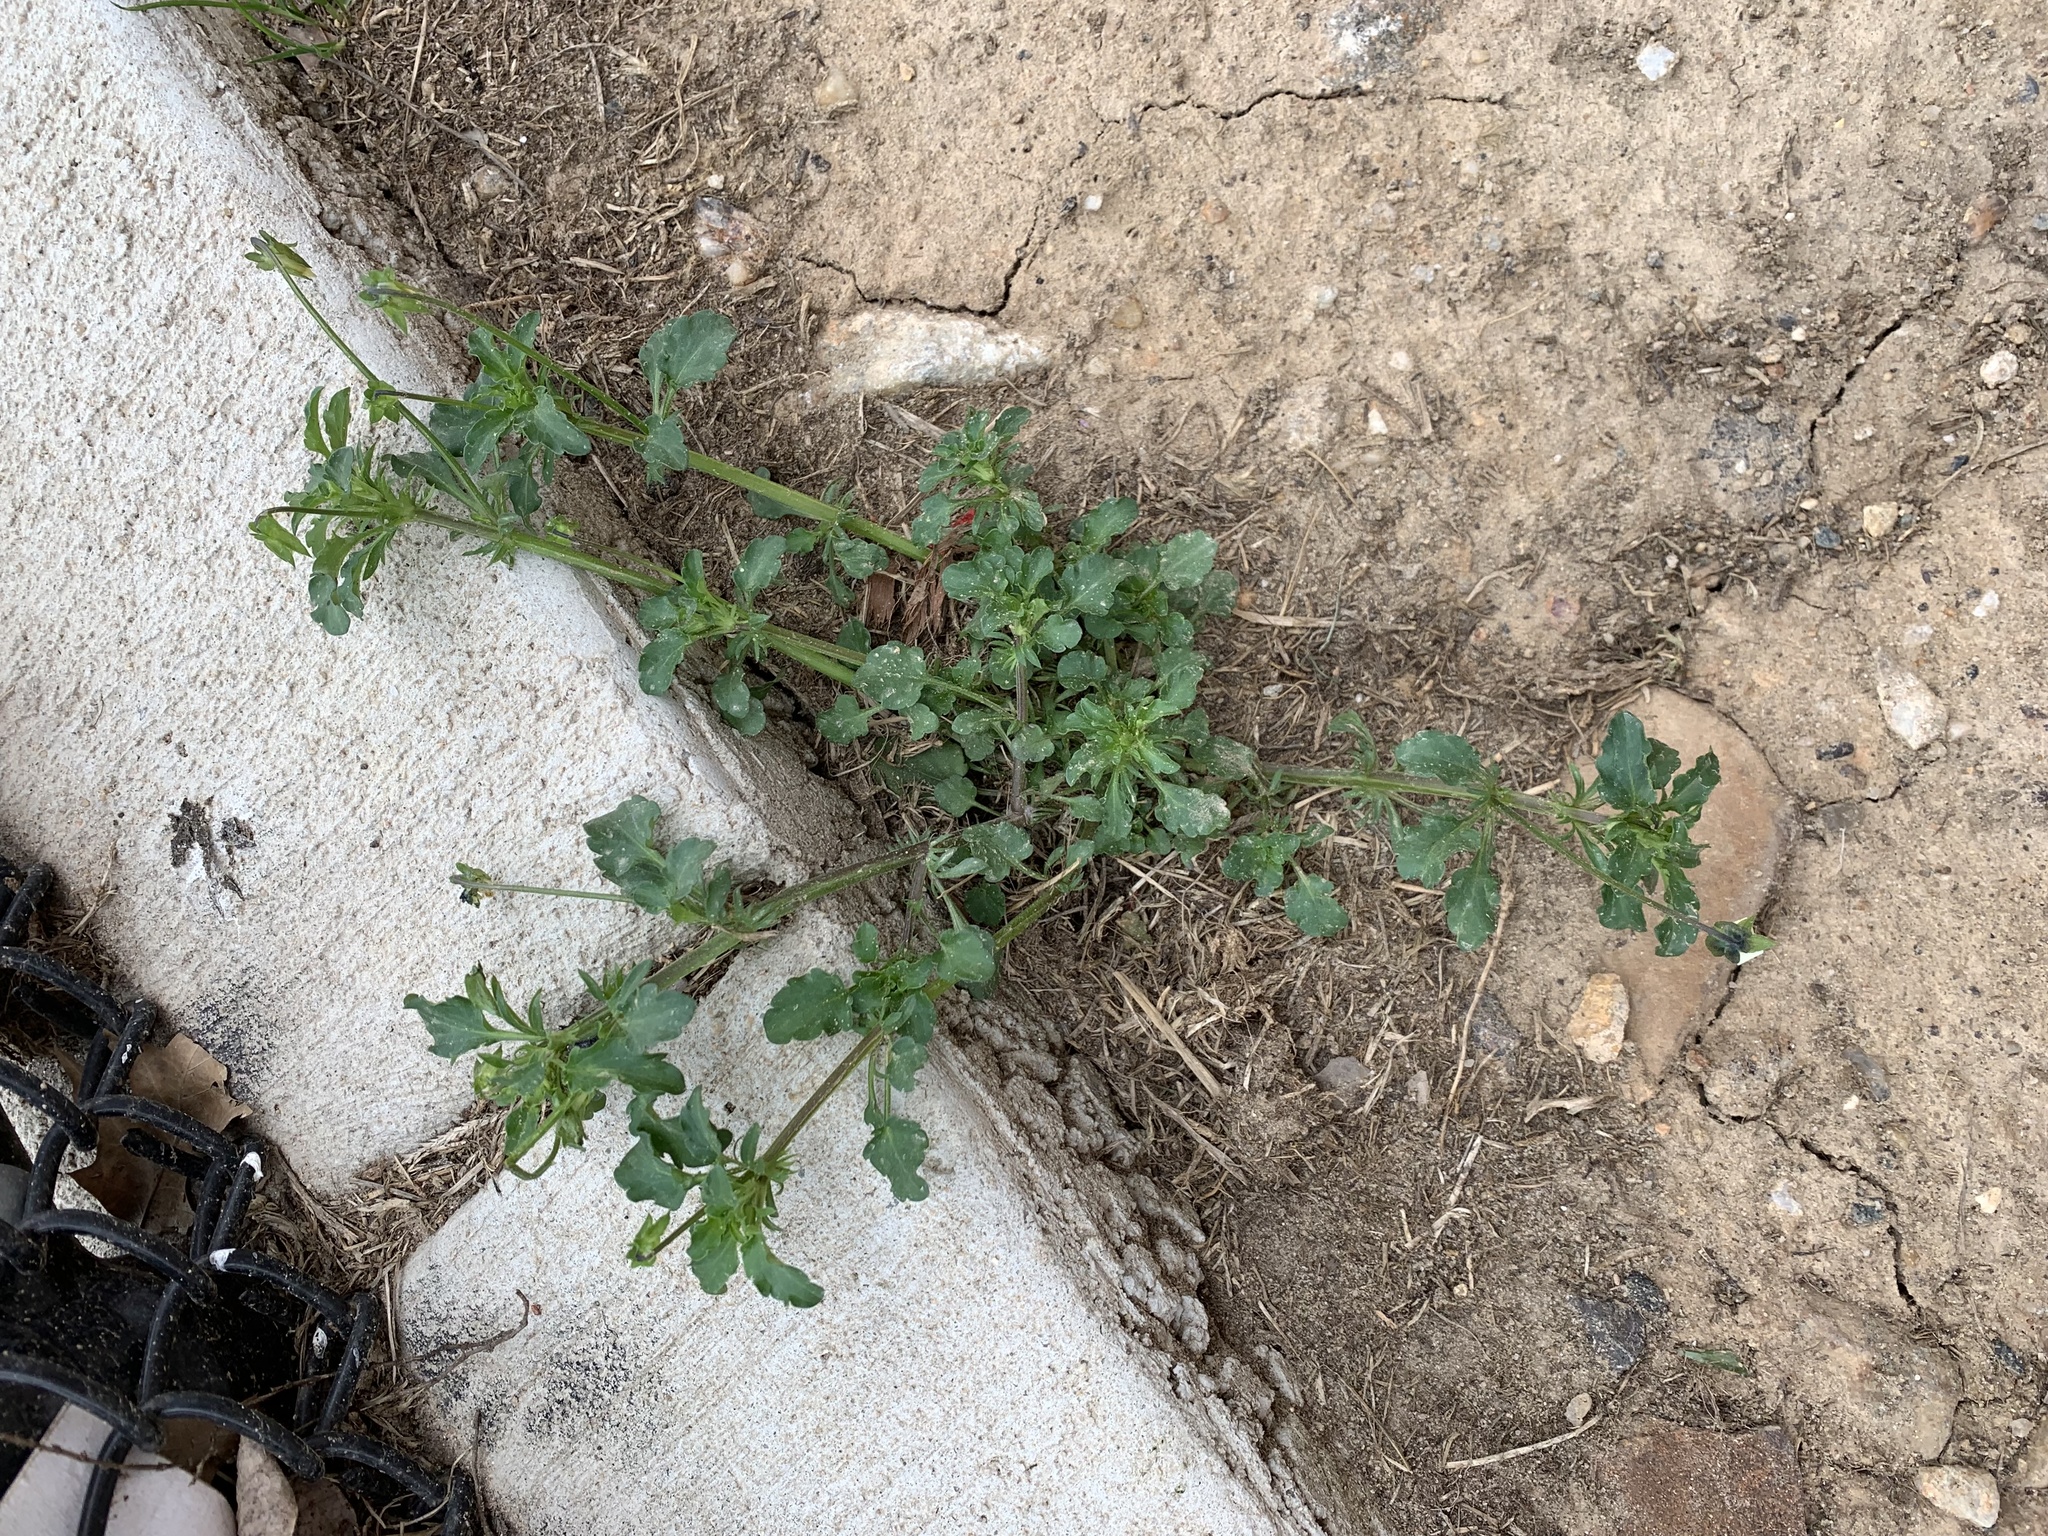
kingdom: Plantae
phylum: Tracheophyta
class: Magnoliopsida
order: Malpighiales
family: Violaceae
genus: Viola
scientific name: Viola arvensis
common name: Field pansy
